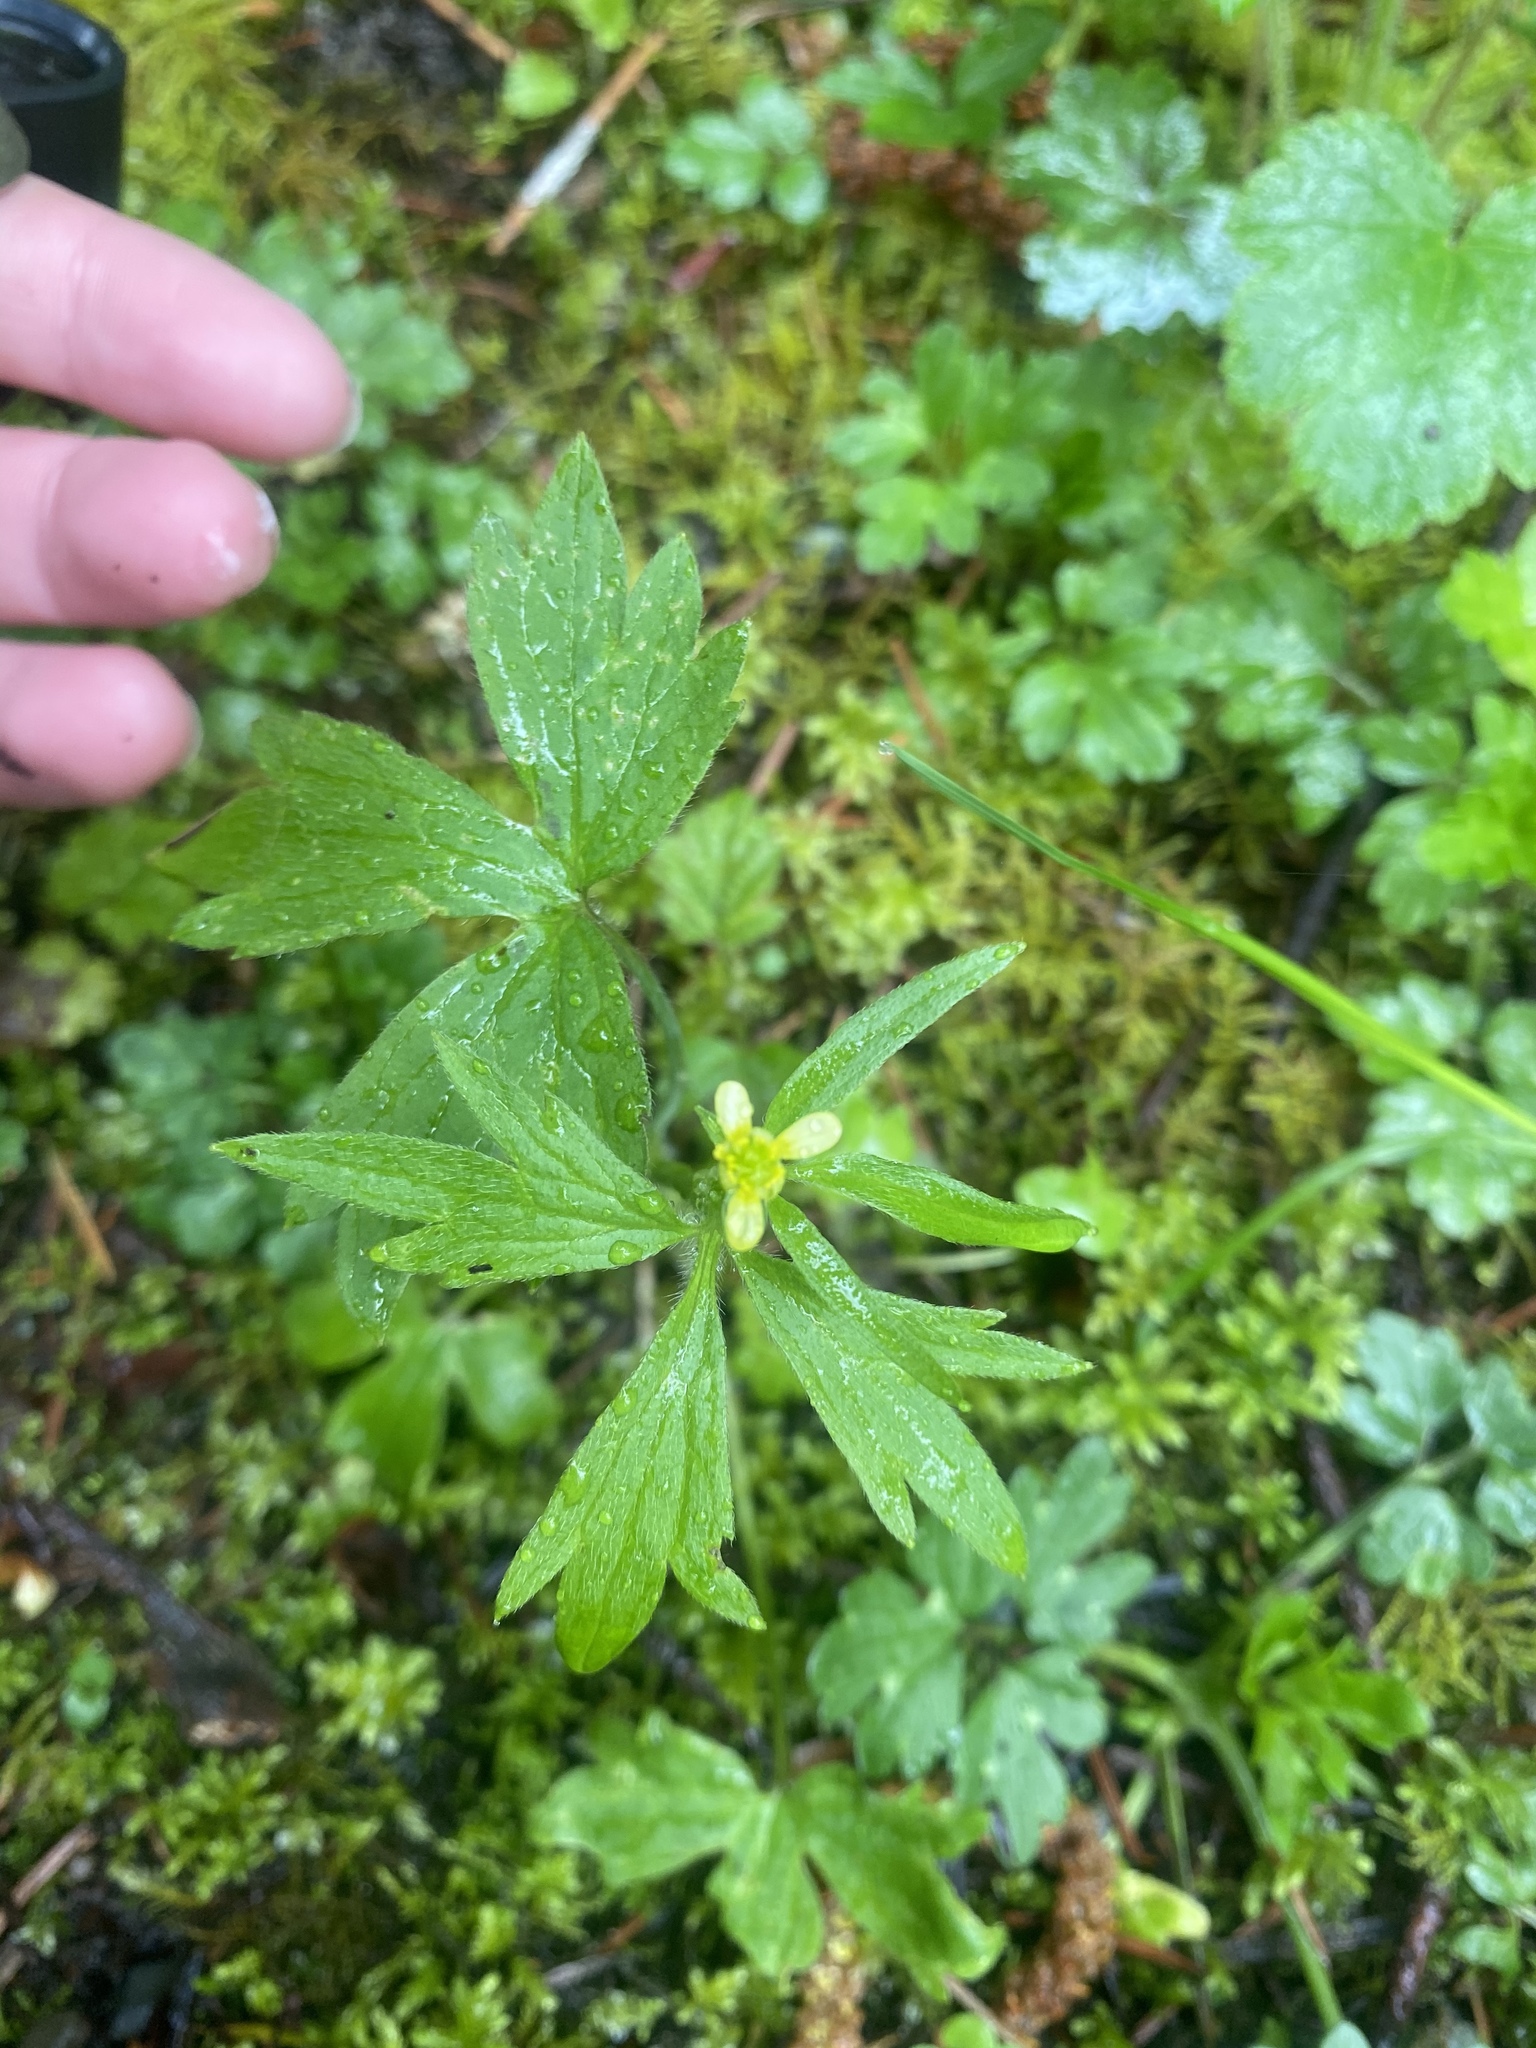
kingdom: Plantae
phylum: Tracheophyta
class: Magnoliopsida
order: Ranunculales
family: Ranunculaceae
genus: Ranunculus
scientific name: Ranunculus uncinatus
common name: Little buttercup
